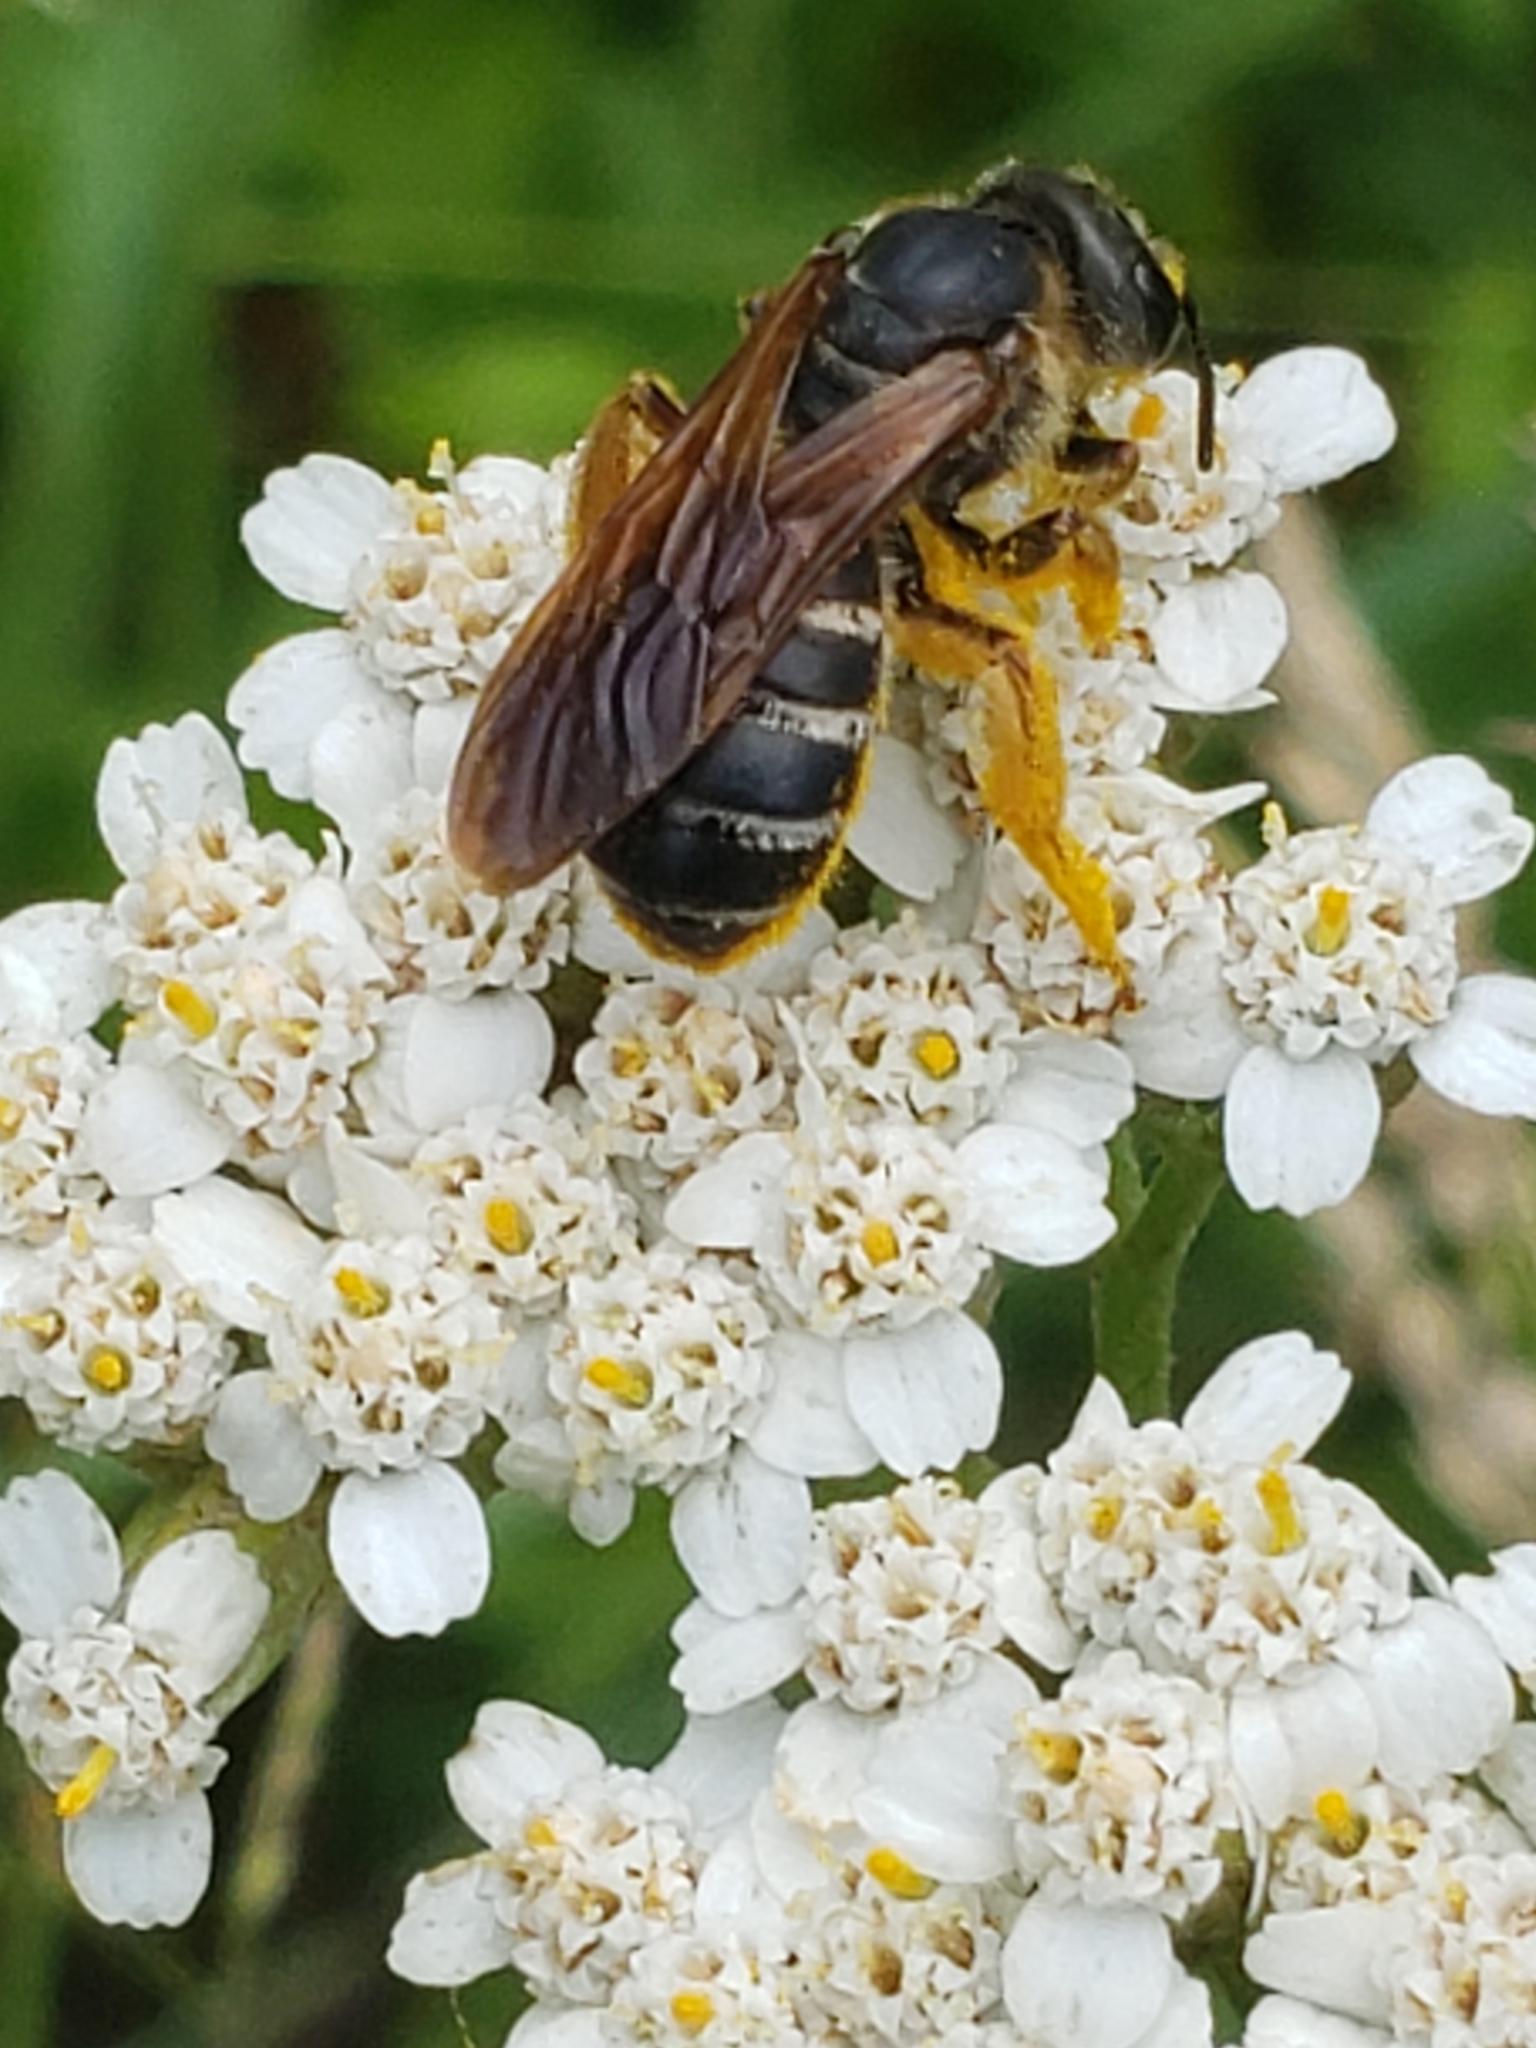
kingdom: Animalia
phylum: Arthropoda
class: Insecta
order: Hymenoptera
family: Halictidae
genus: Halictus
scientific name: Halictus parallelus
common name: Parallel-striped sweat bee
